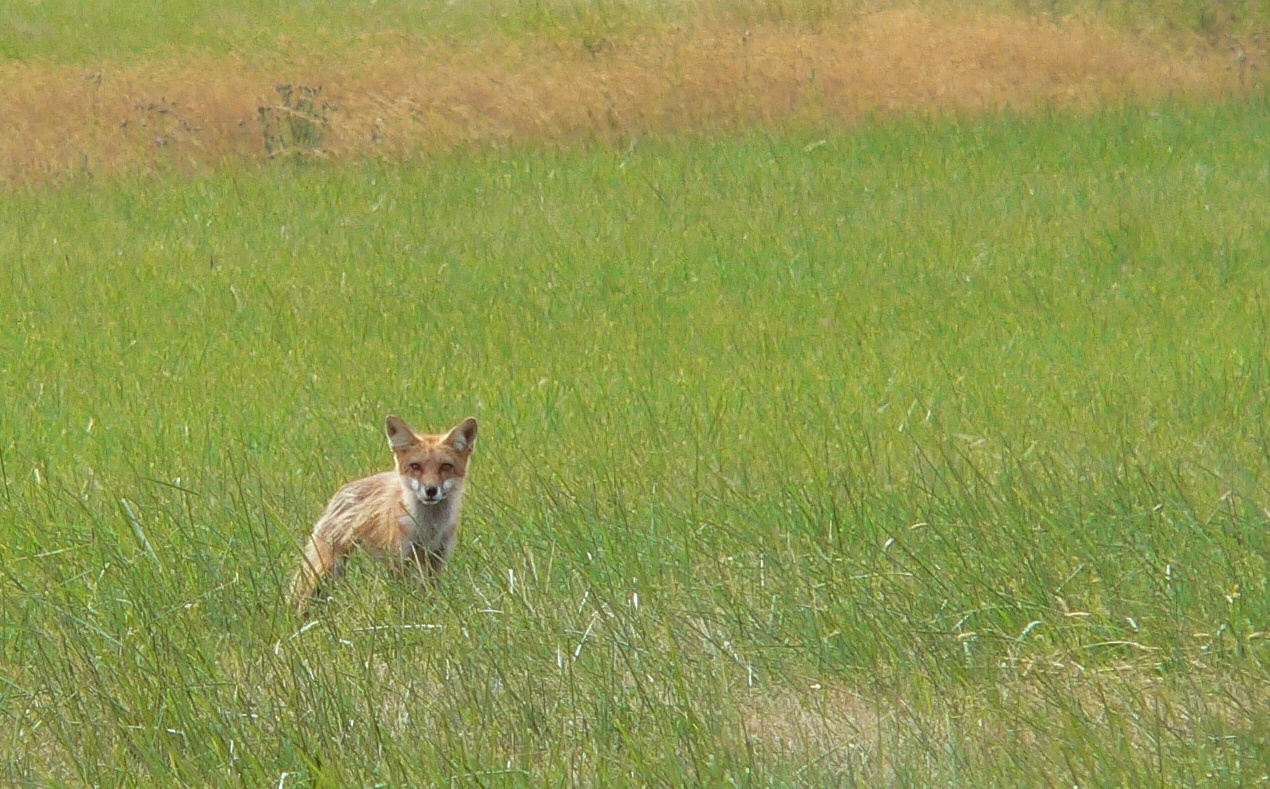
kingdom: Animalia
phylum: Chordata
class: Mammalia
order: Carnivora
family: Canidae
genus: Vulpes
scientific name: Vulpes vulpes
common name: Red fox
